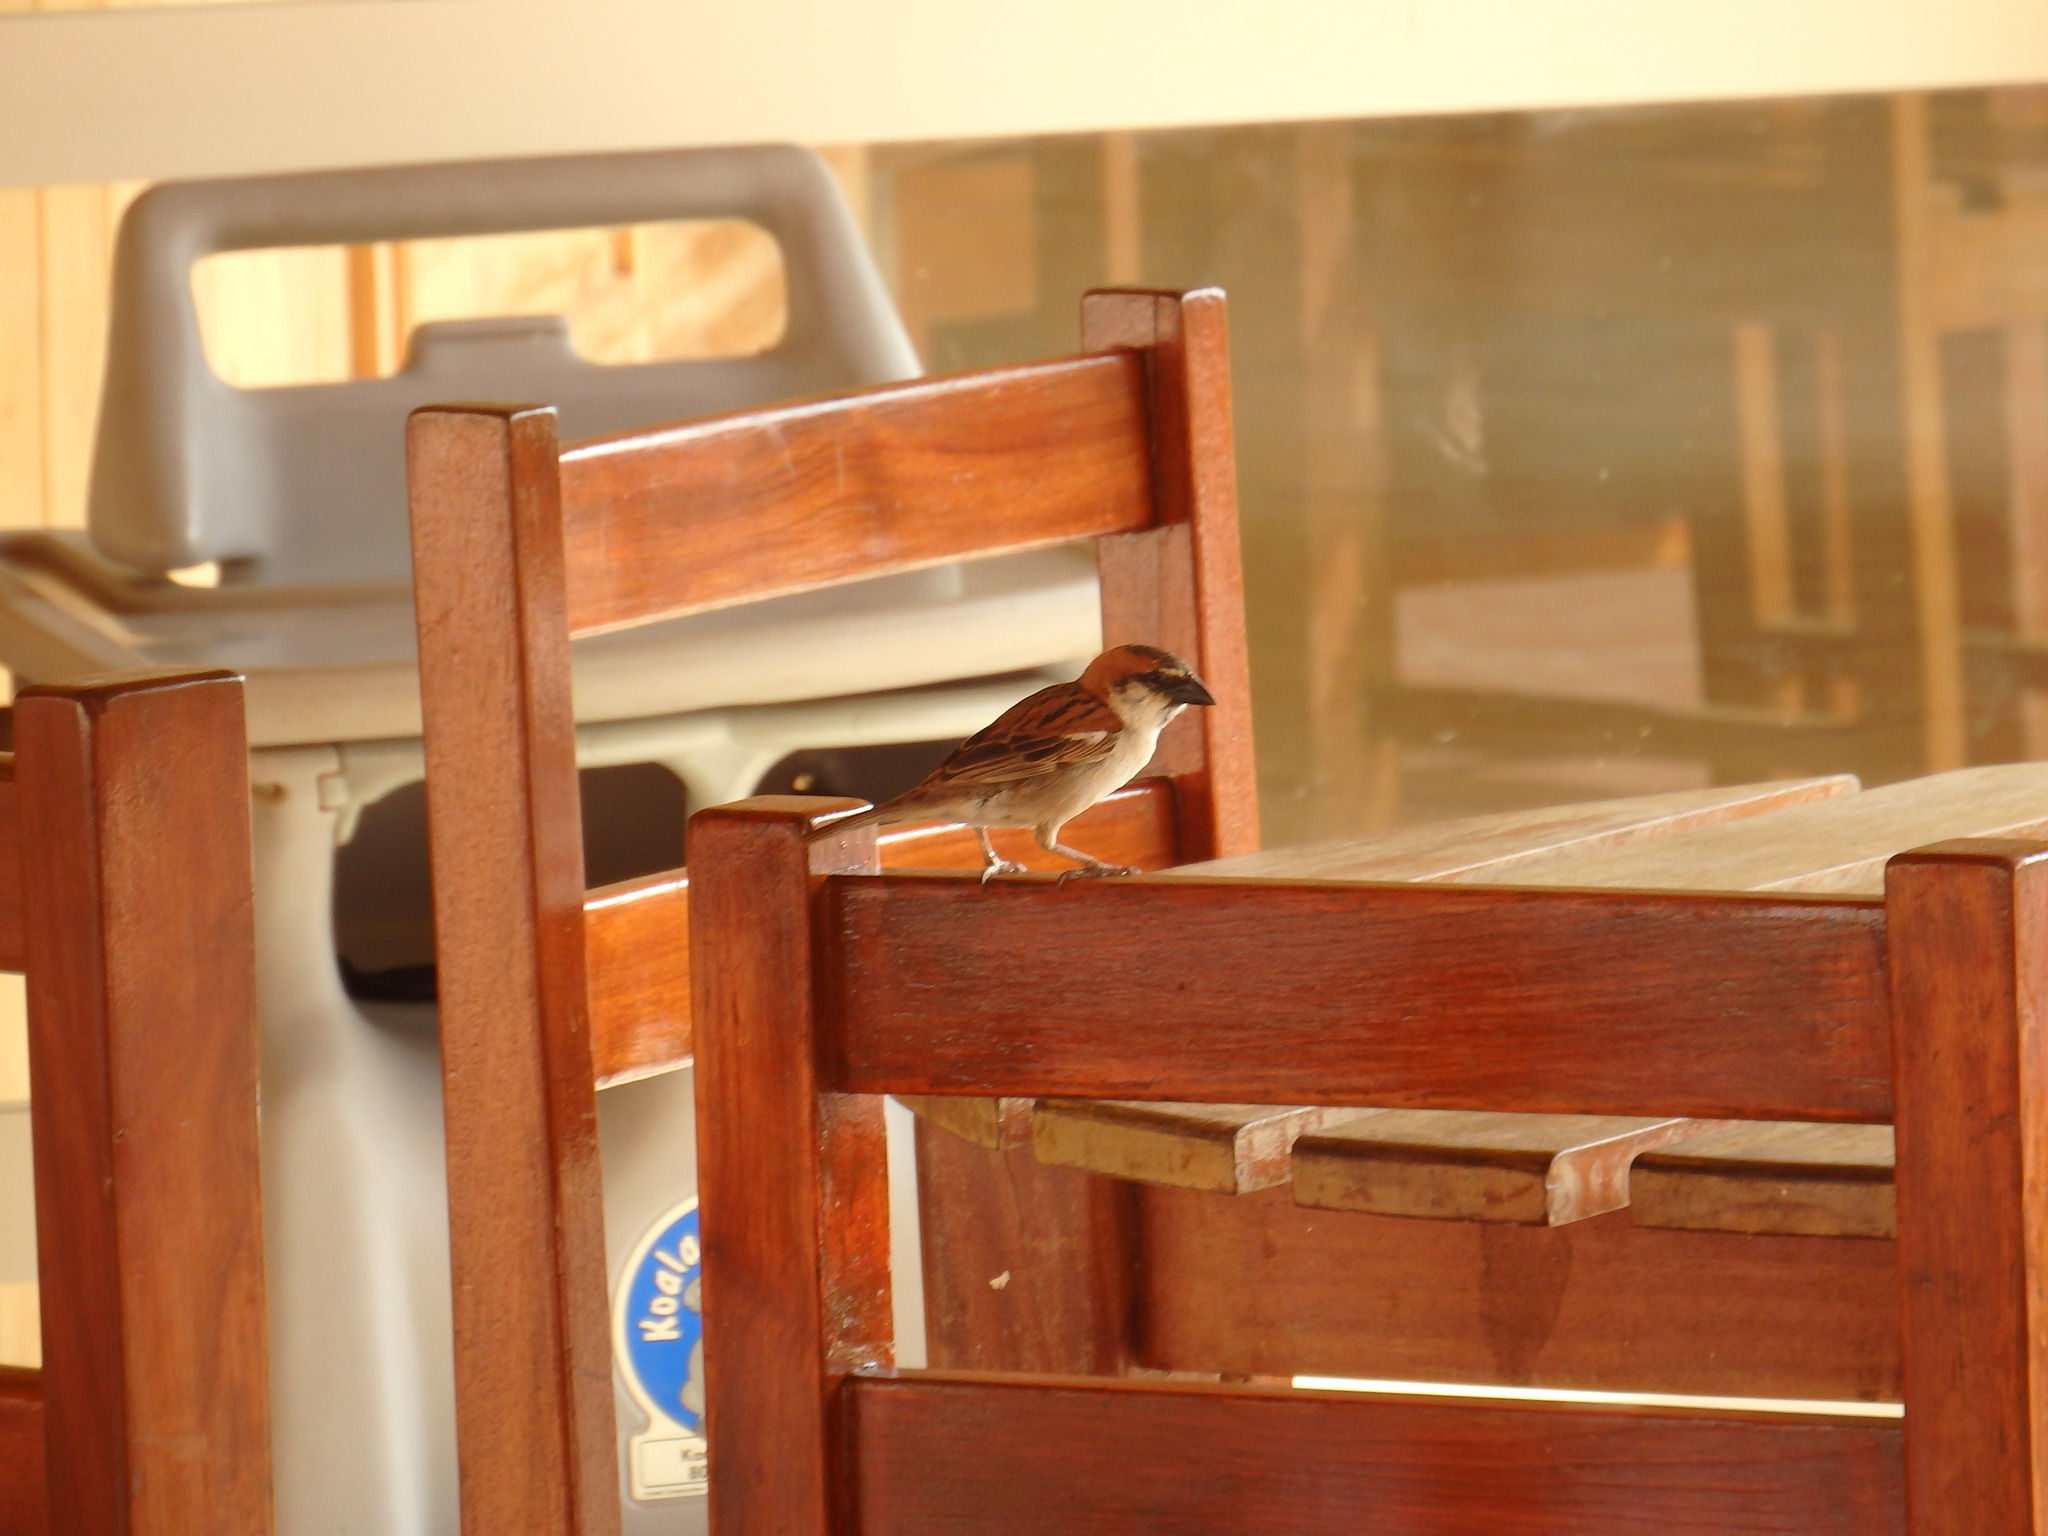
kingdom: Animalia
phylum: Chordata
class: Aves
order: Passeriformes
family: Passeridae
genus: Passer
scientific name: Passer iagoensis
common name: Iago sparrow
